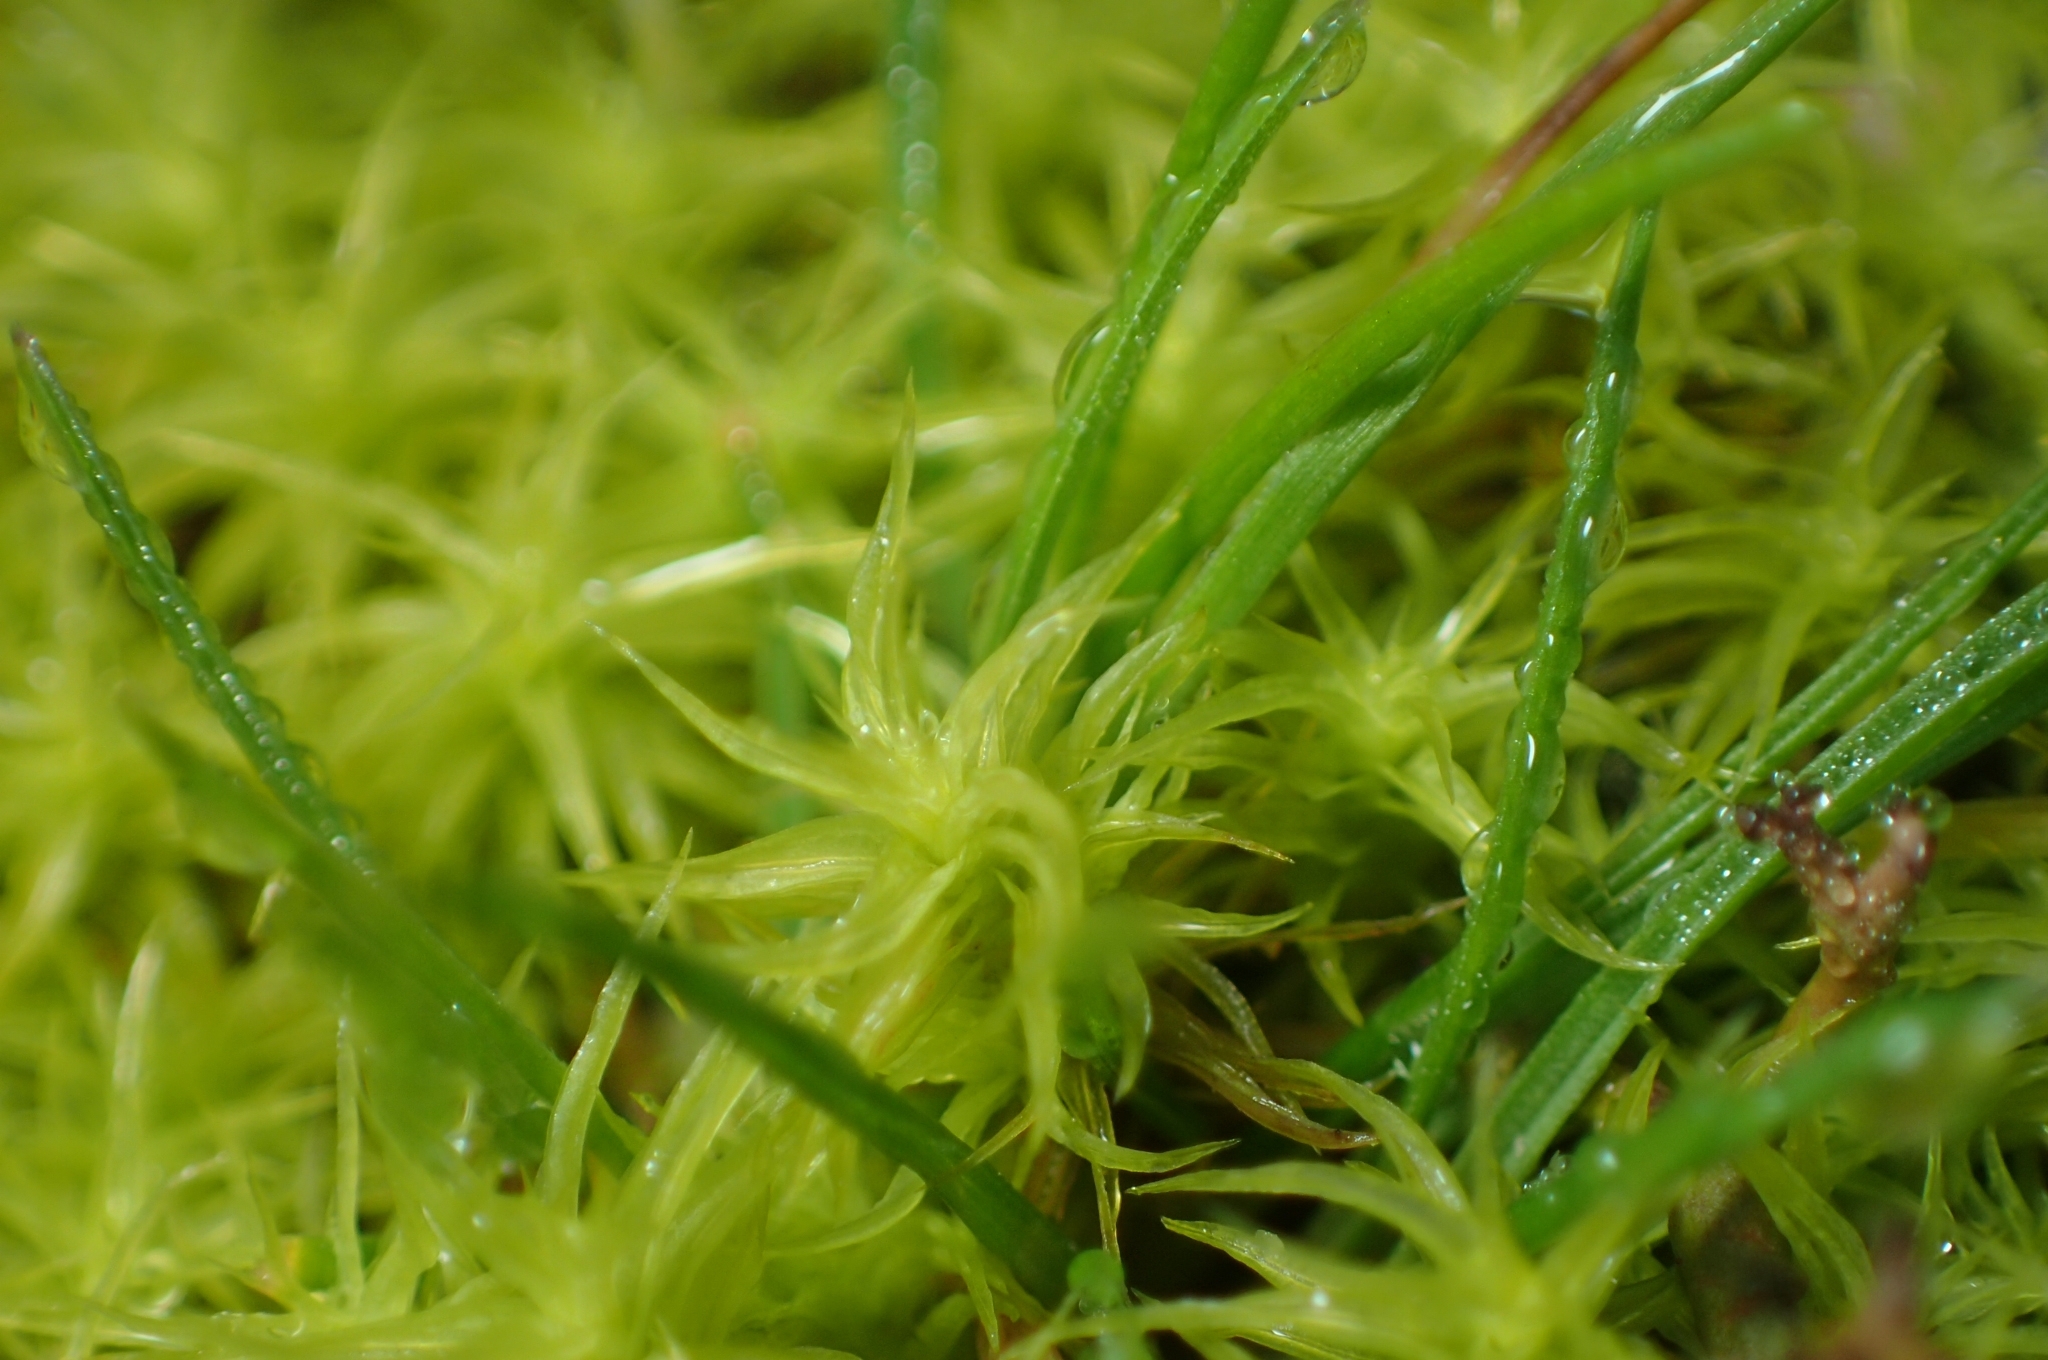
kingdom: Plantae
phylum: Bryophyta
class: Bryopsida
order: Pottiales
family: Pottiaceae
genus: Pleurochaete
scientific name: Pleurochaete squarrosa
